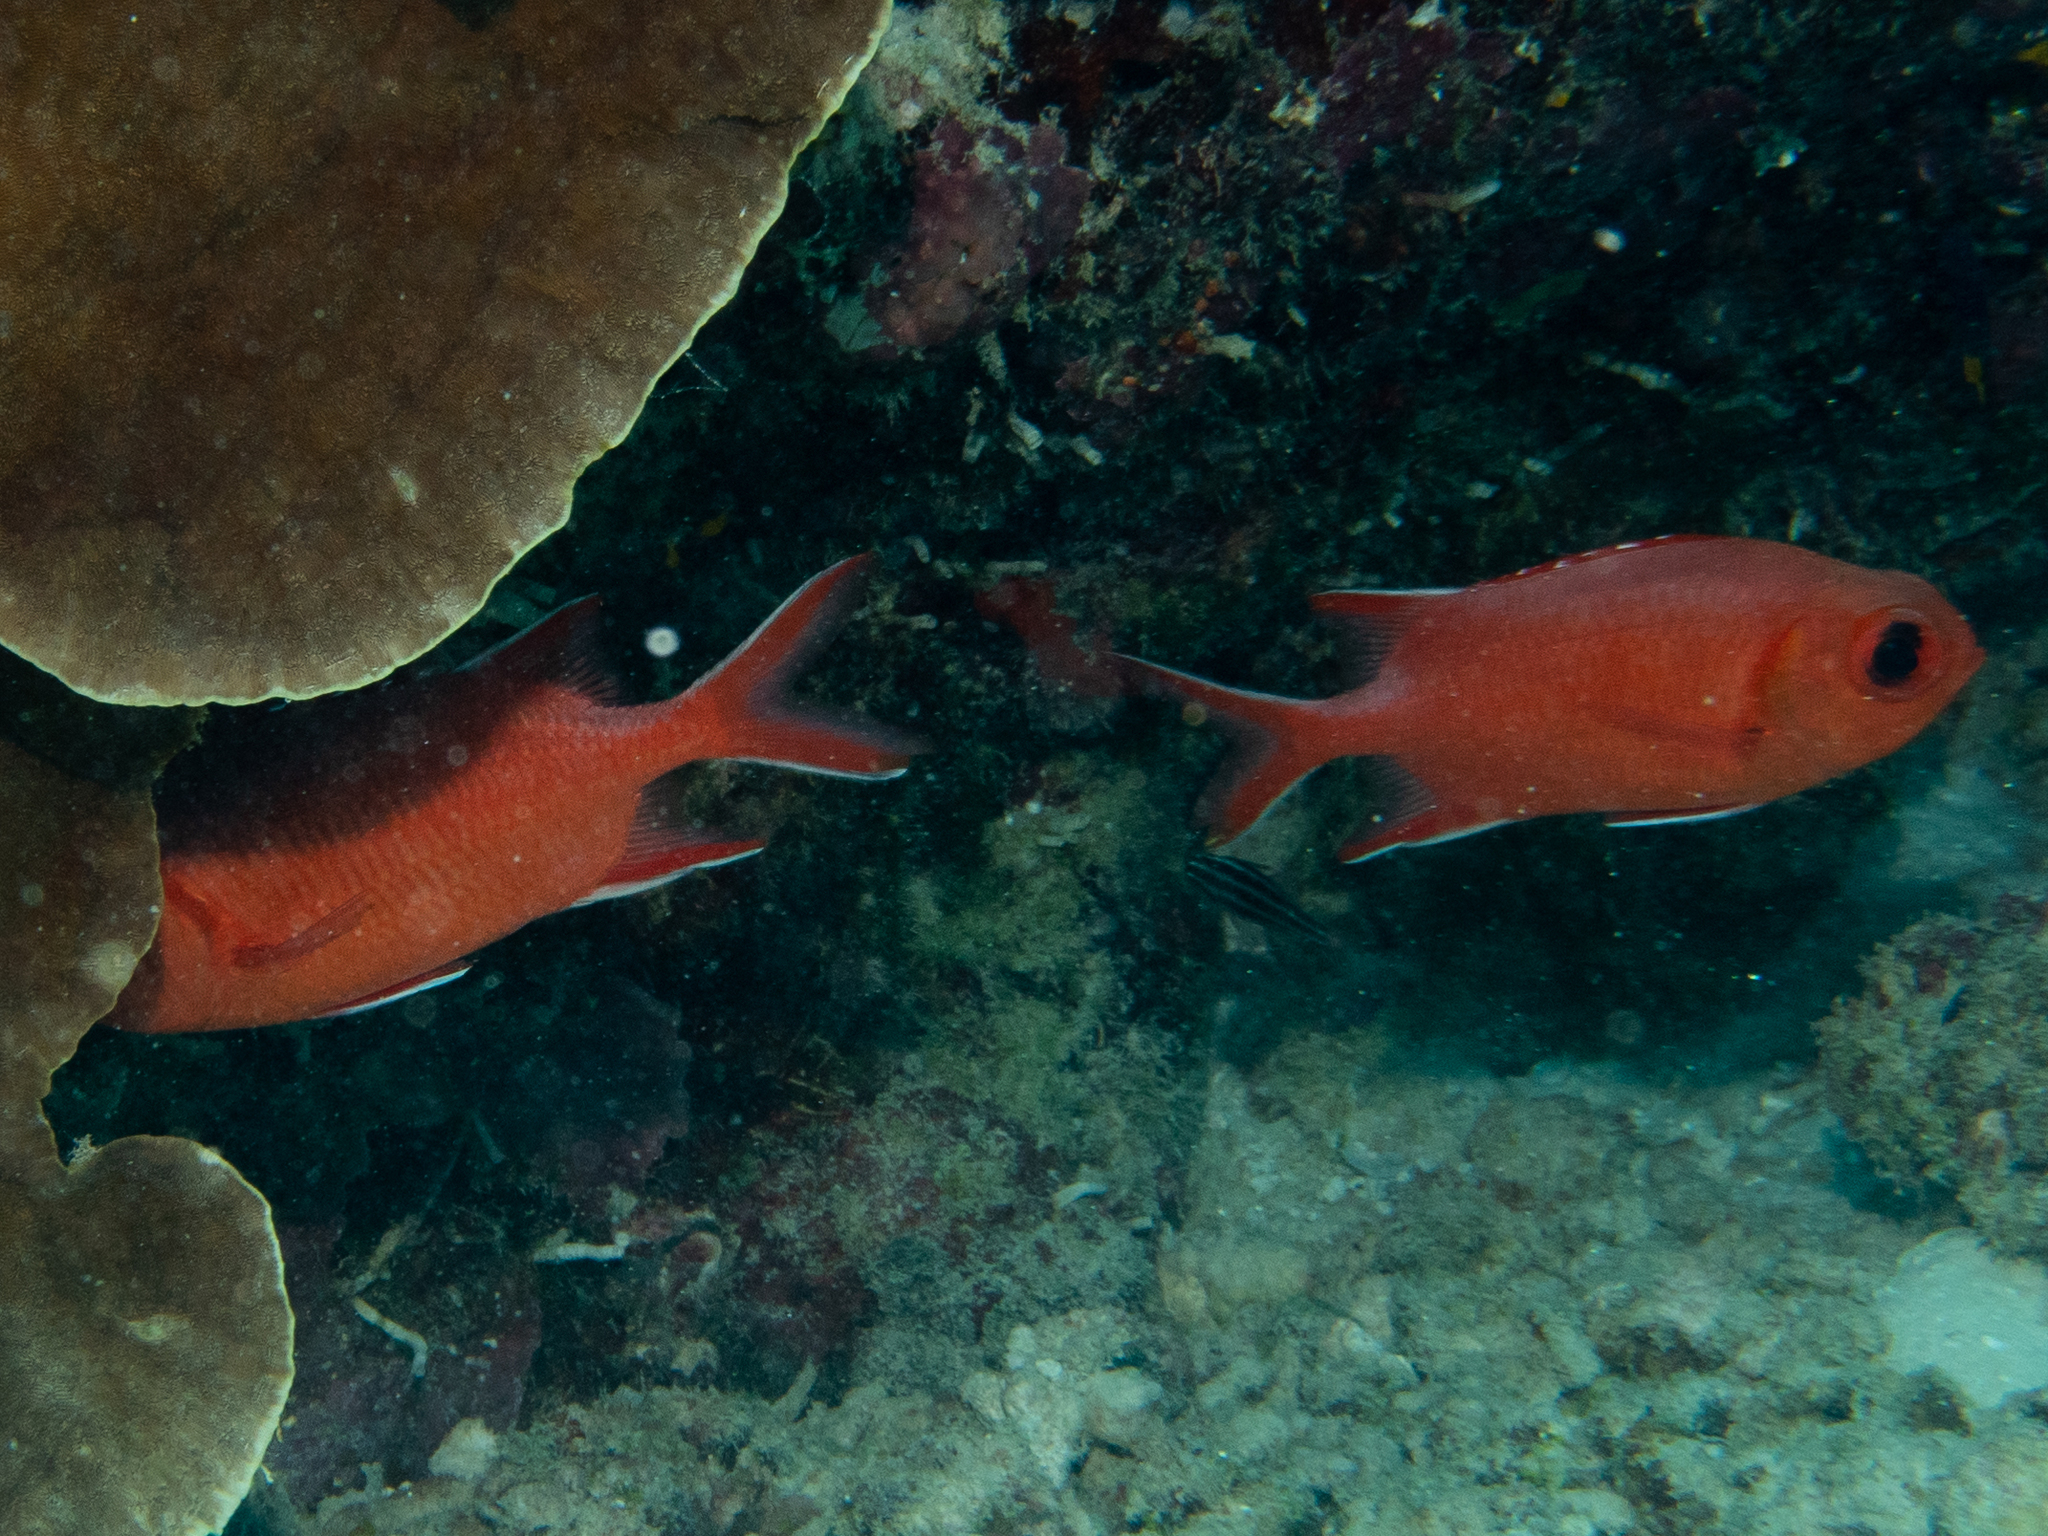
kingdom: Animalia
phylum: Chordata
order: Beryciformes
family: Holocentridae
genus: Myripristis
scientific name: Myripristis vittata
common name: Immaculate squirrelfish
